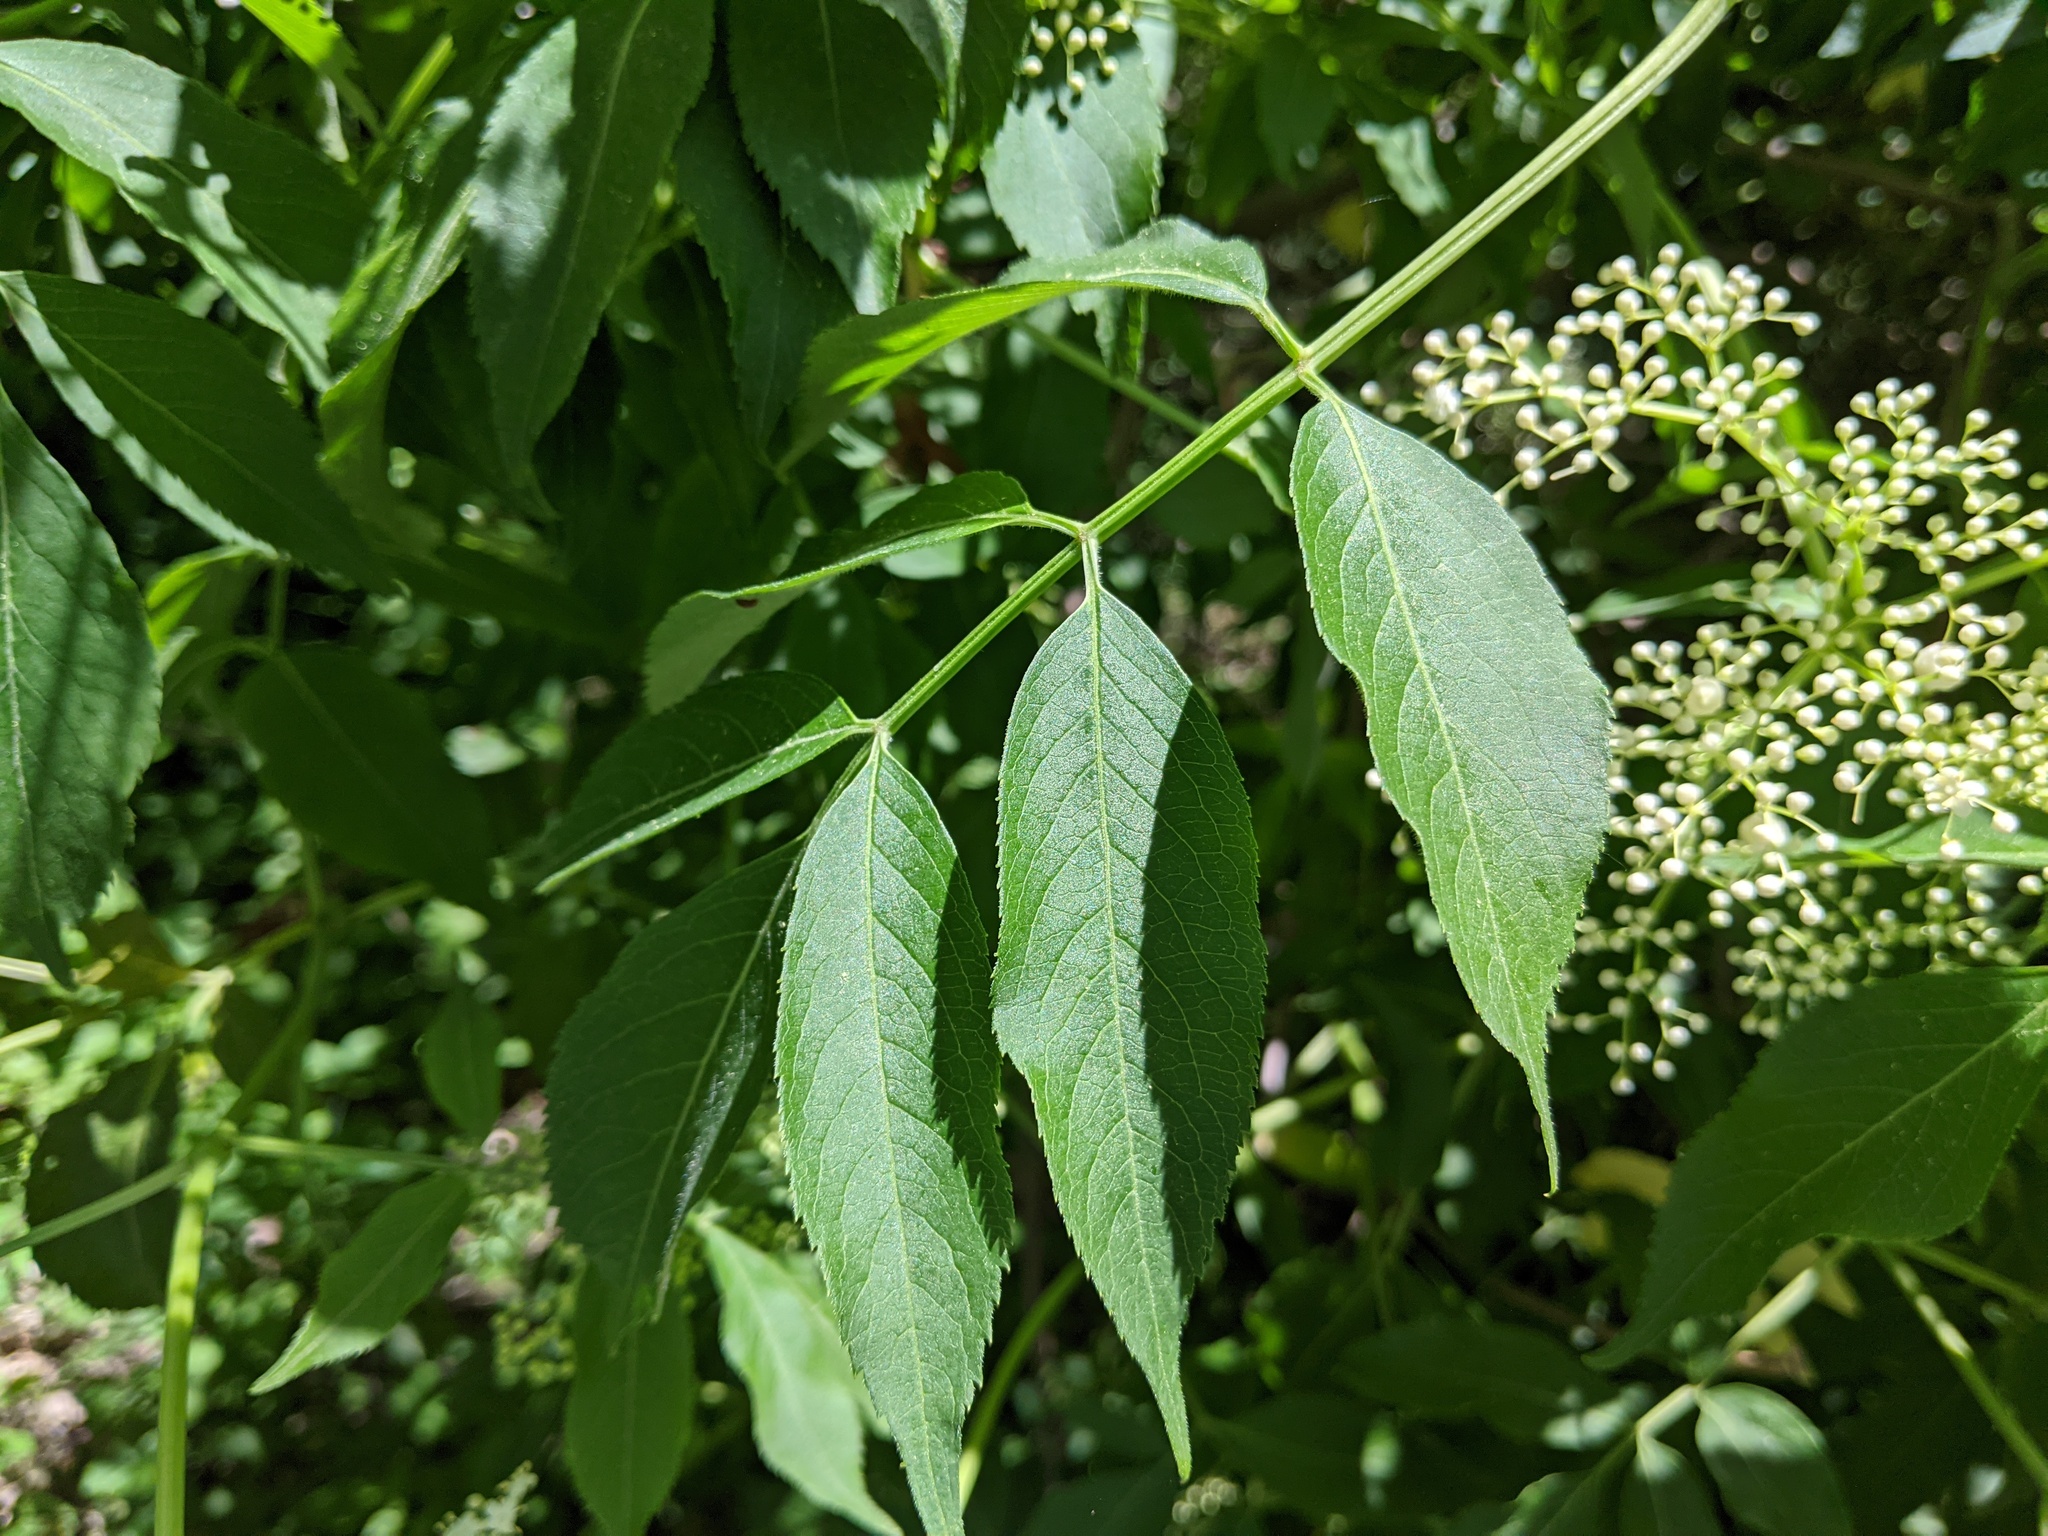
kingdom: Plantae
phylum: Tracheophyta
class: Magnoliopsida
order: Dipsacales
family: Viburnaceae
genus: Sambucus
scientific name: Sambucus canadensis
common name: American elder
